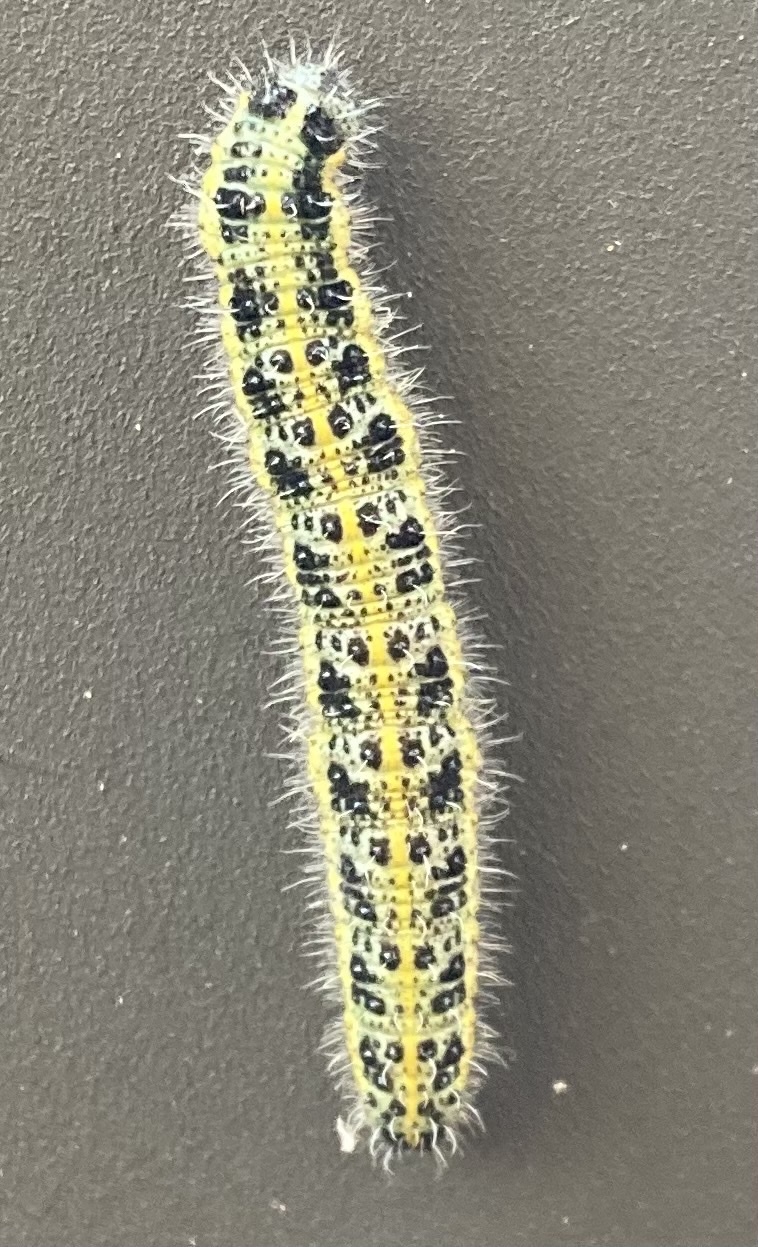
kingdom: Animalia
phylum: Arthropoda
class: Insecta
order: Lepidoptera
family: Pieridae
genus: Pieris
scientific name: Pieris brassicae
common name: Large white
